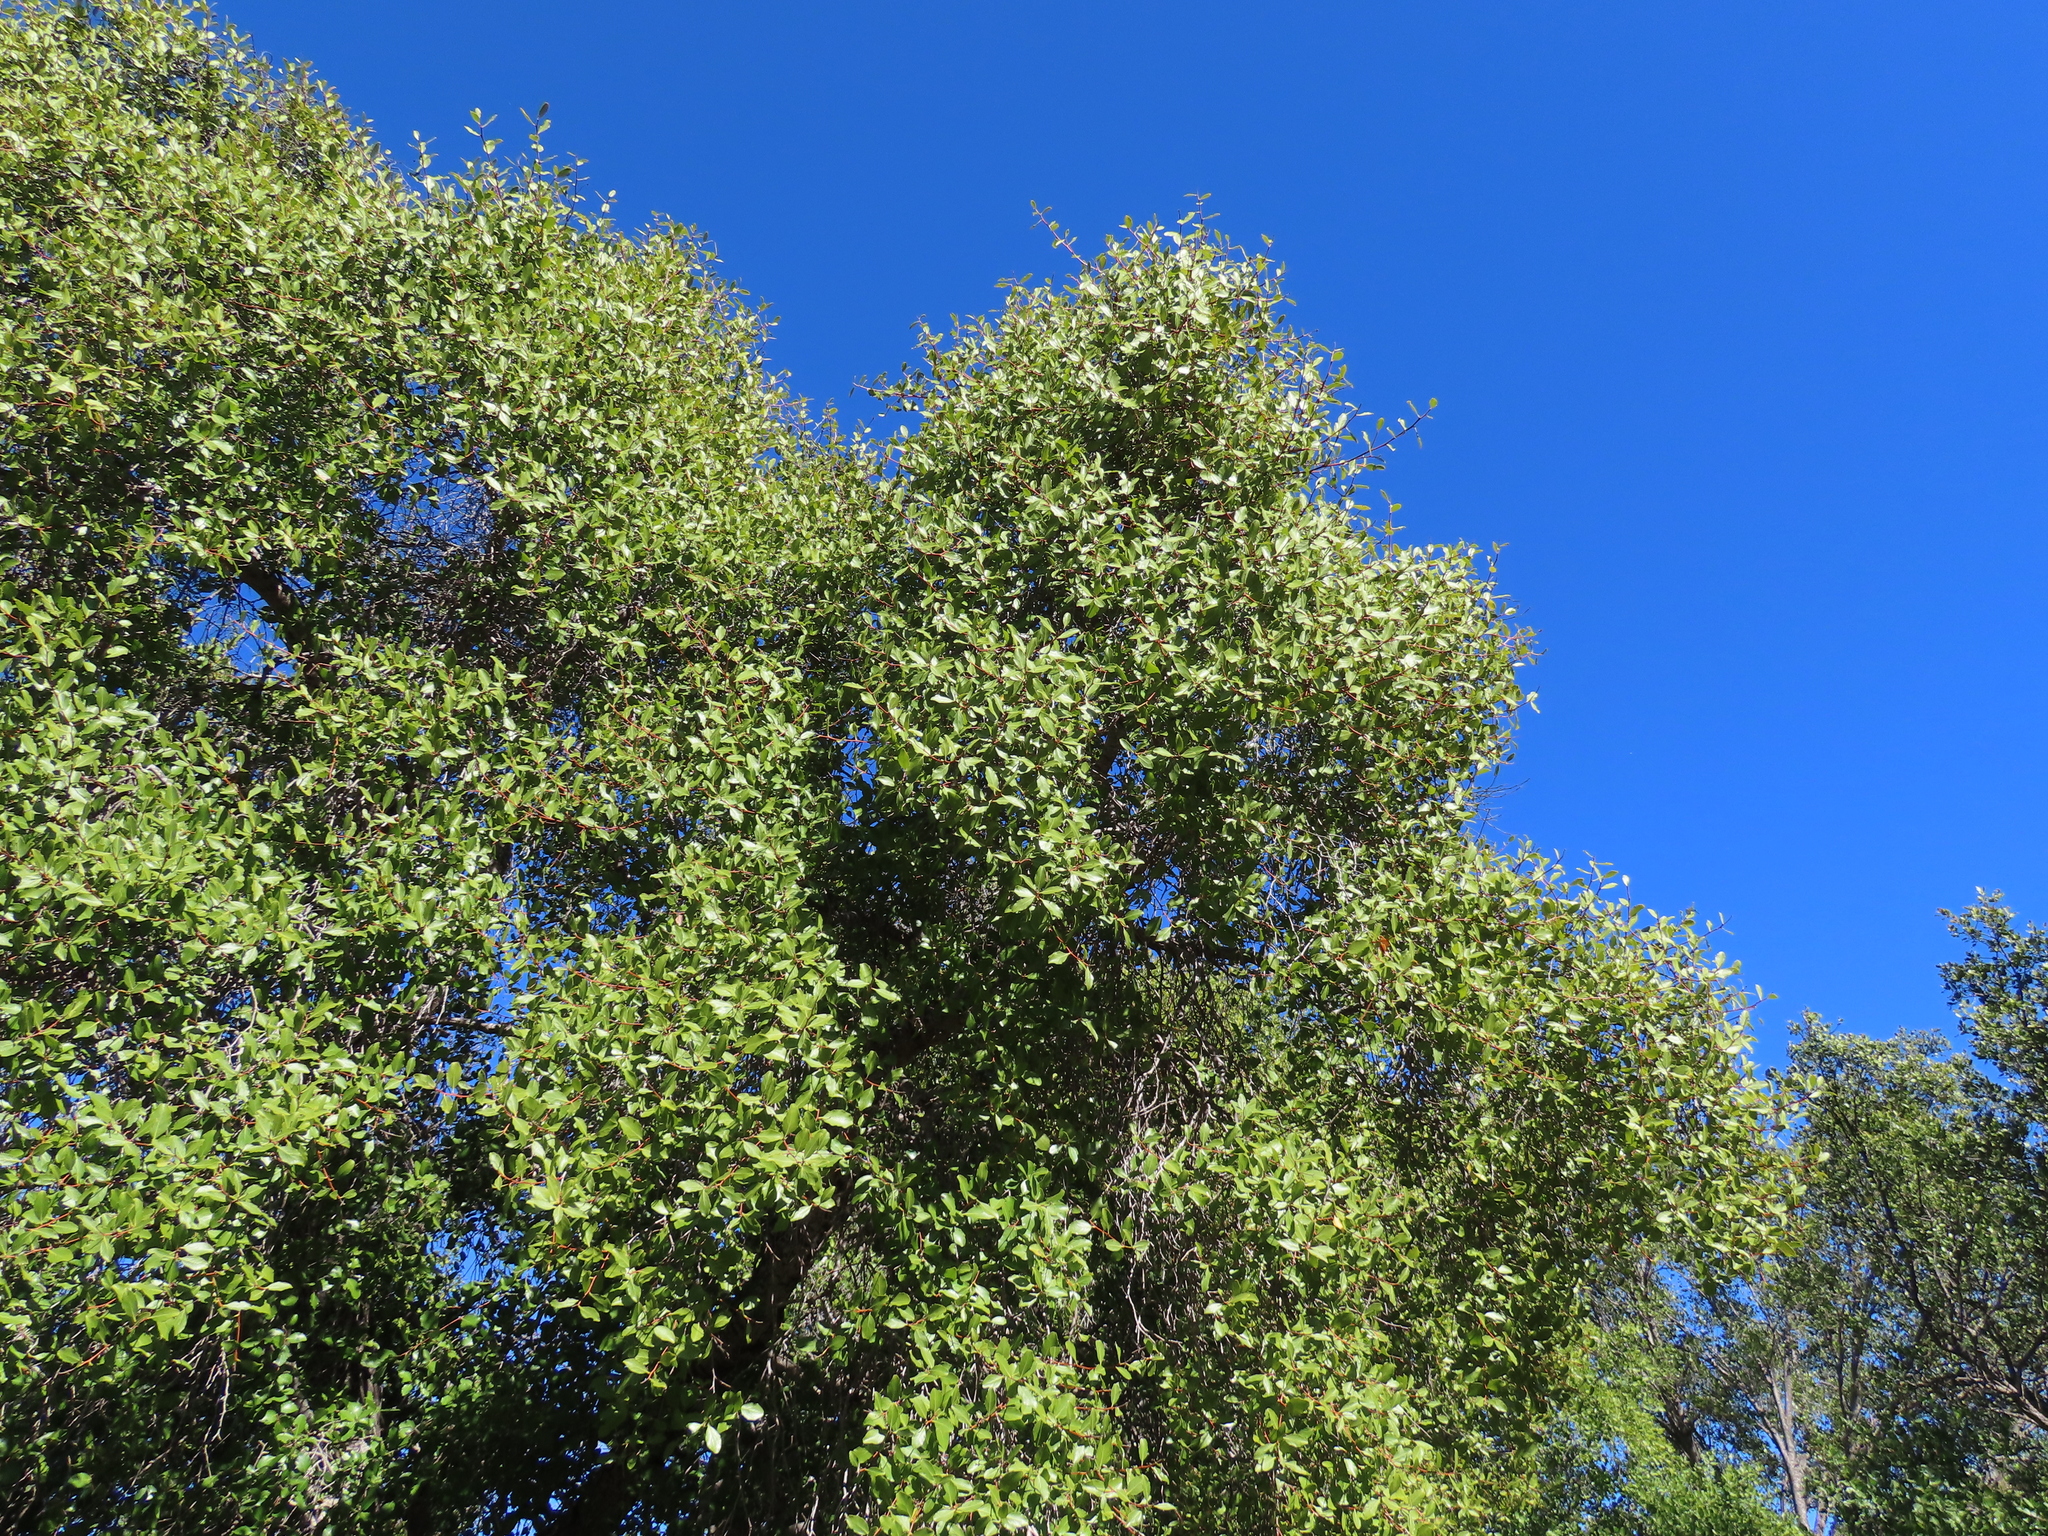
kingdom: Plantae
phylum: Tracheophyta
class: Magnoliopsida
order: Fabales
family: Quillajaceae
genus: Quillaja
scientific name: Quillaja saponaria
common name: Murillo's-bark
